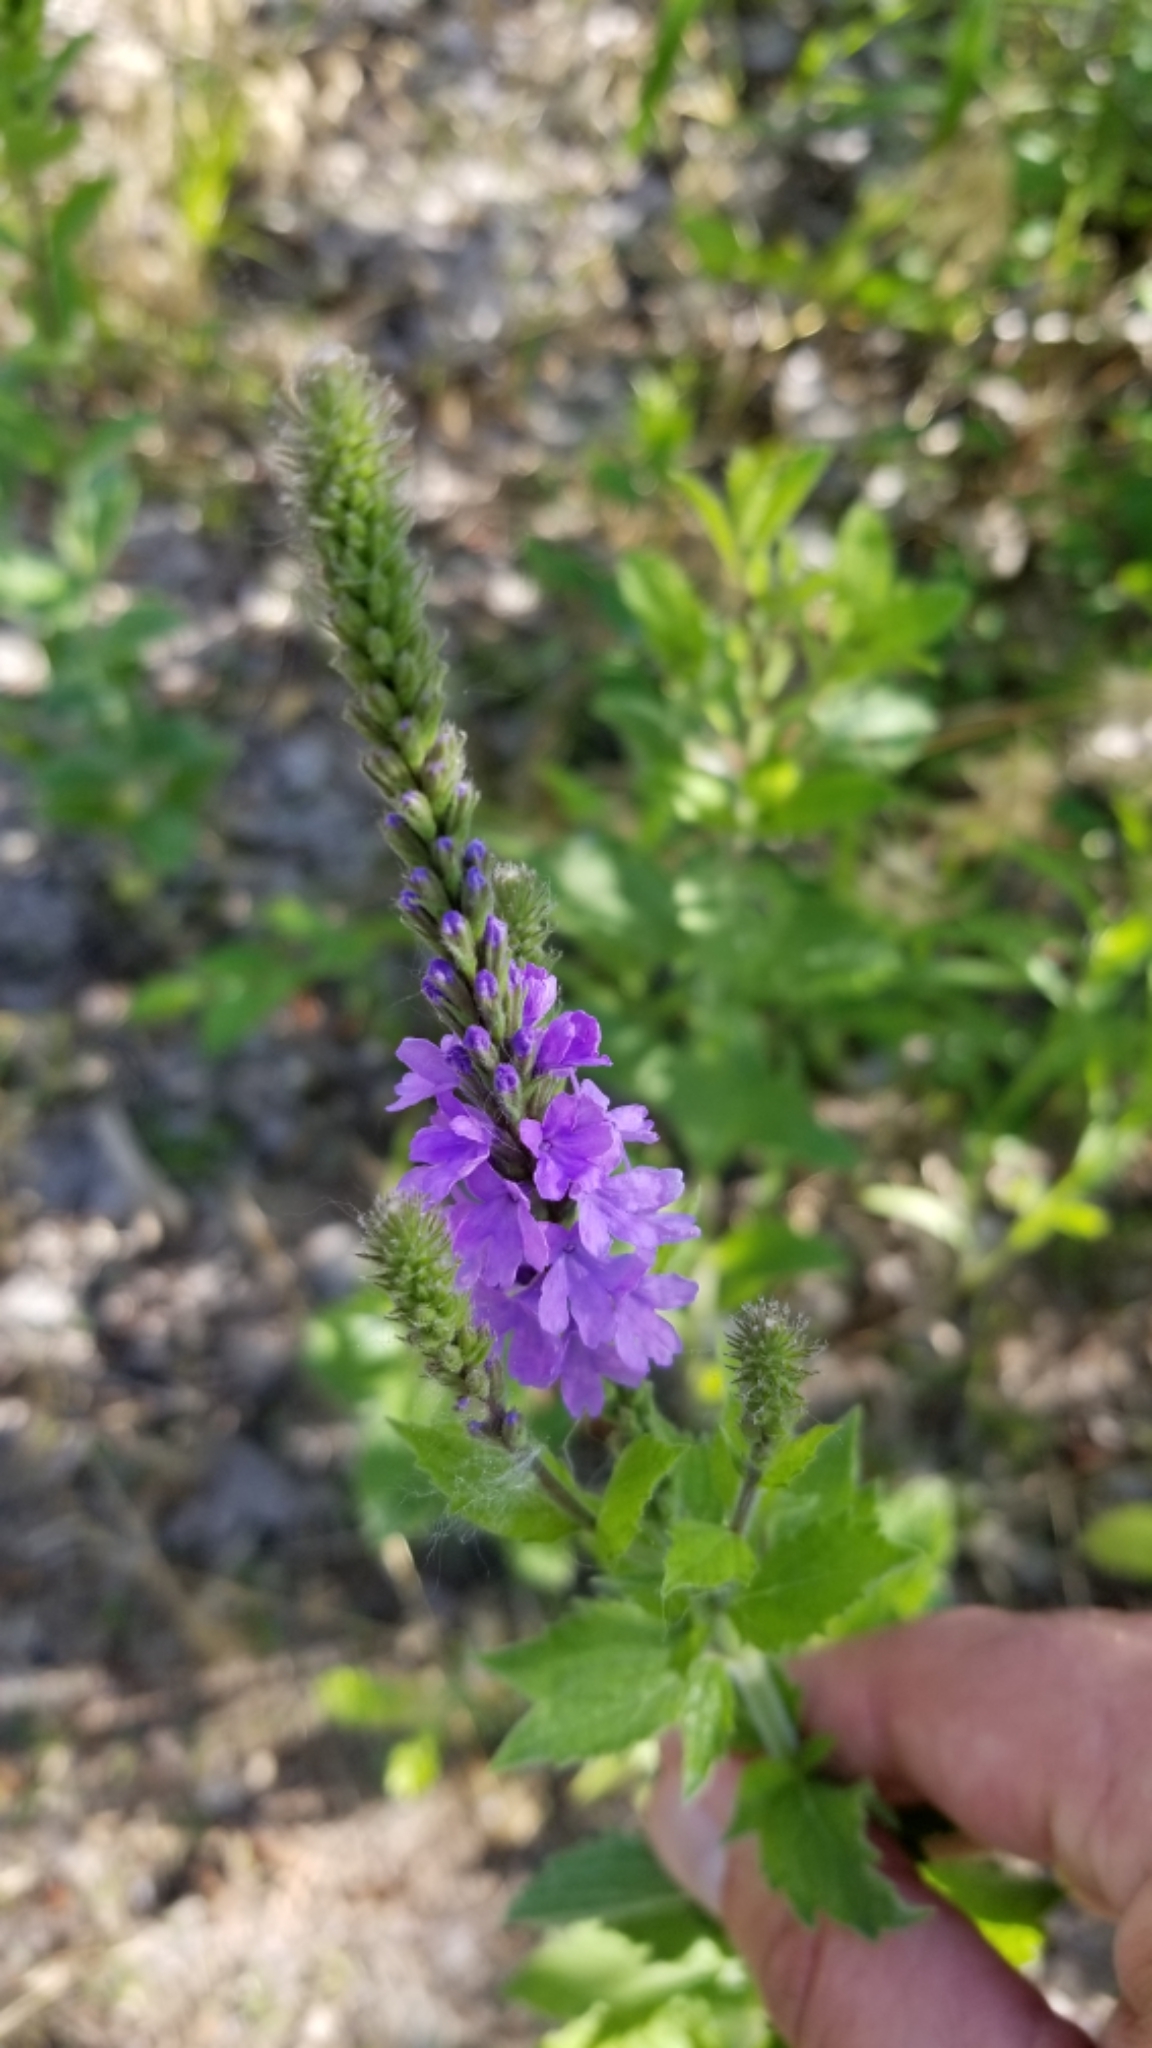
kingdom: Plantae
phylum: Tracheophyta
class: Magnoliopsida
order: Lamiales
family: Verbenaceae
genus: Verbena
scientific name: Verbena stricta
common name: Hoary vervain
